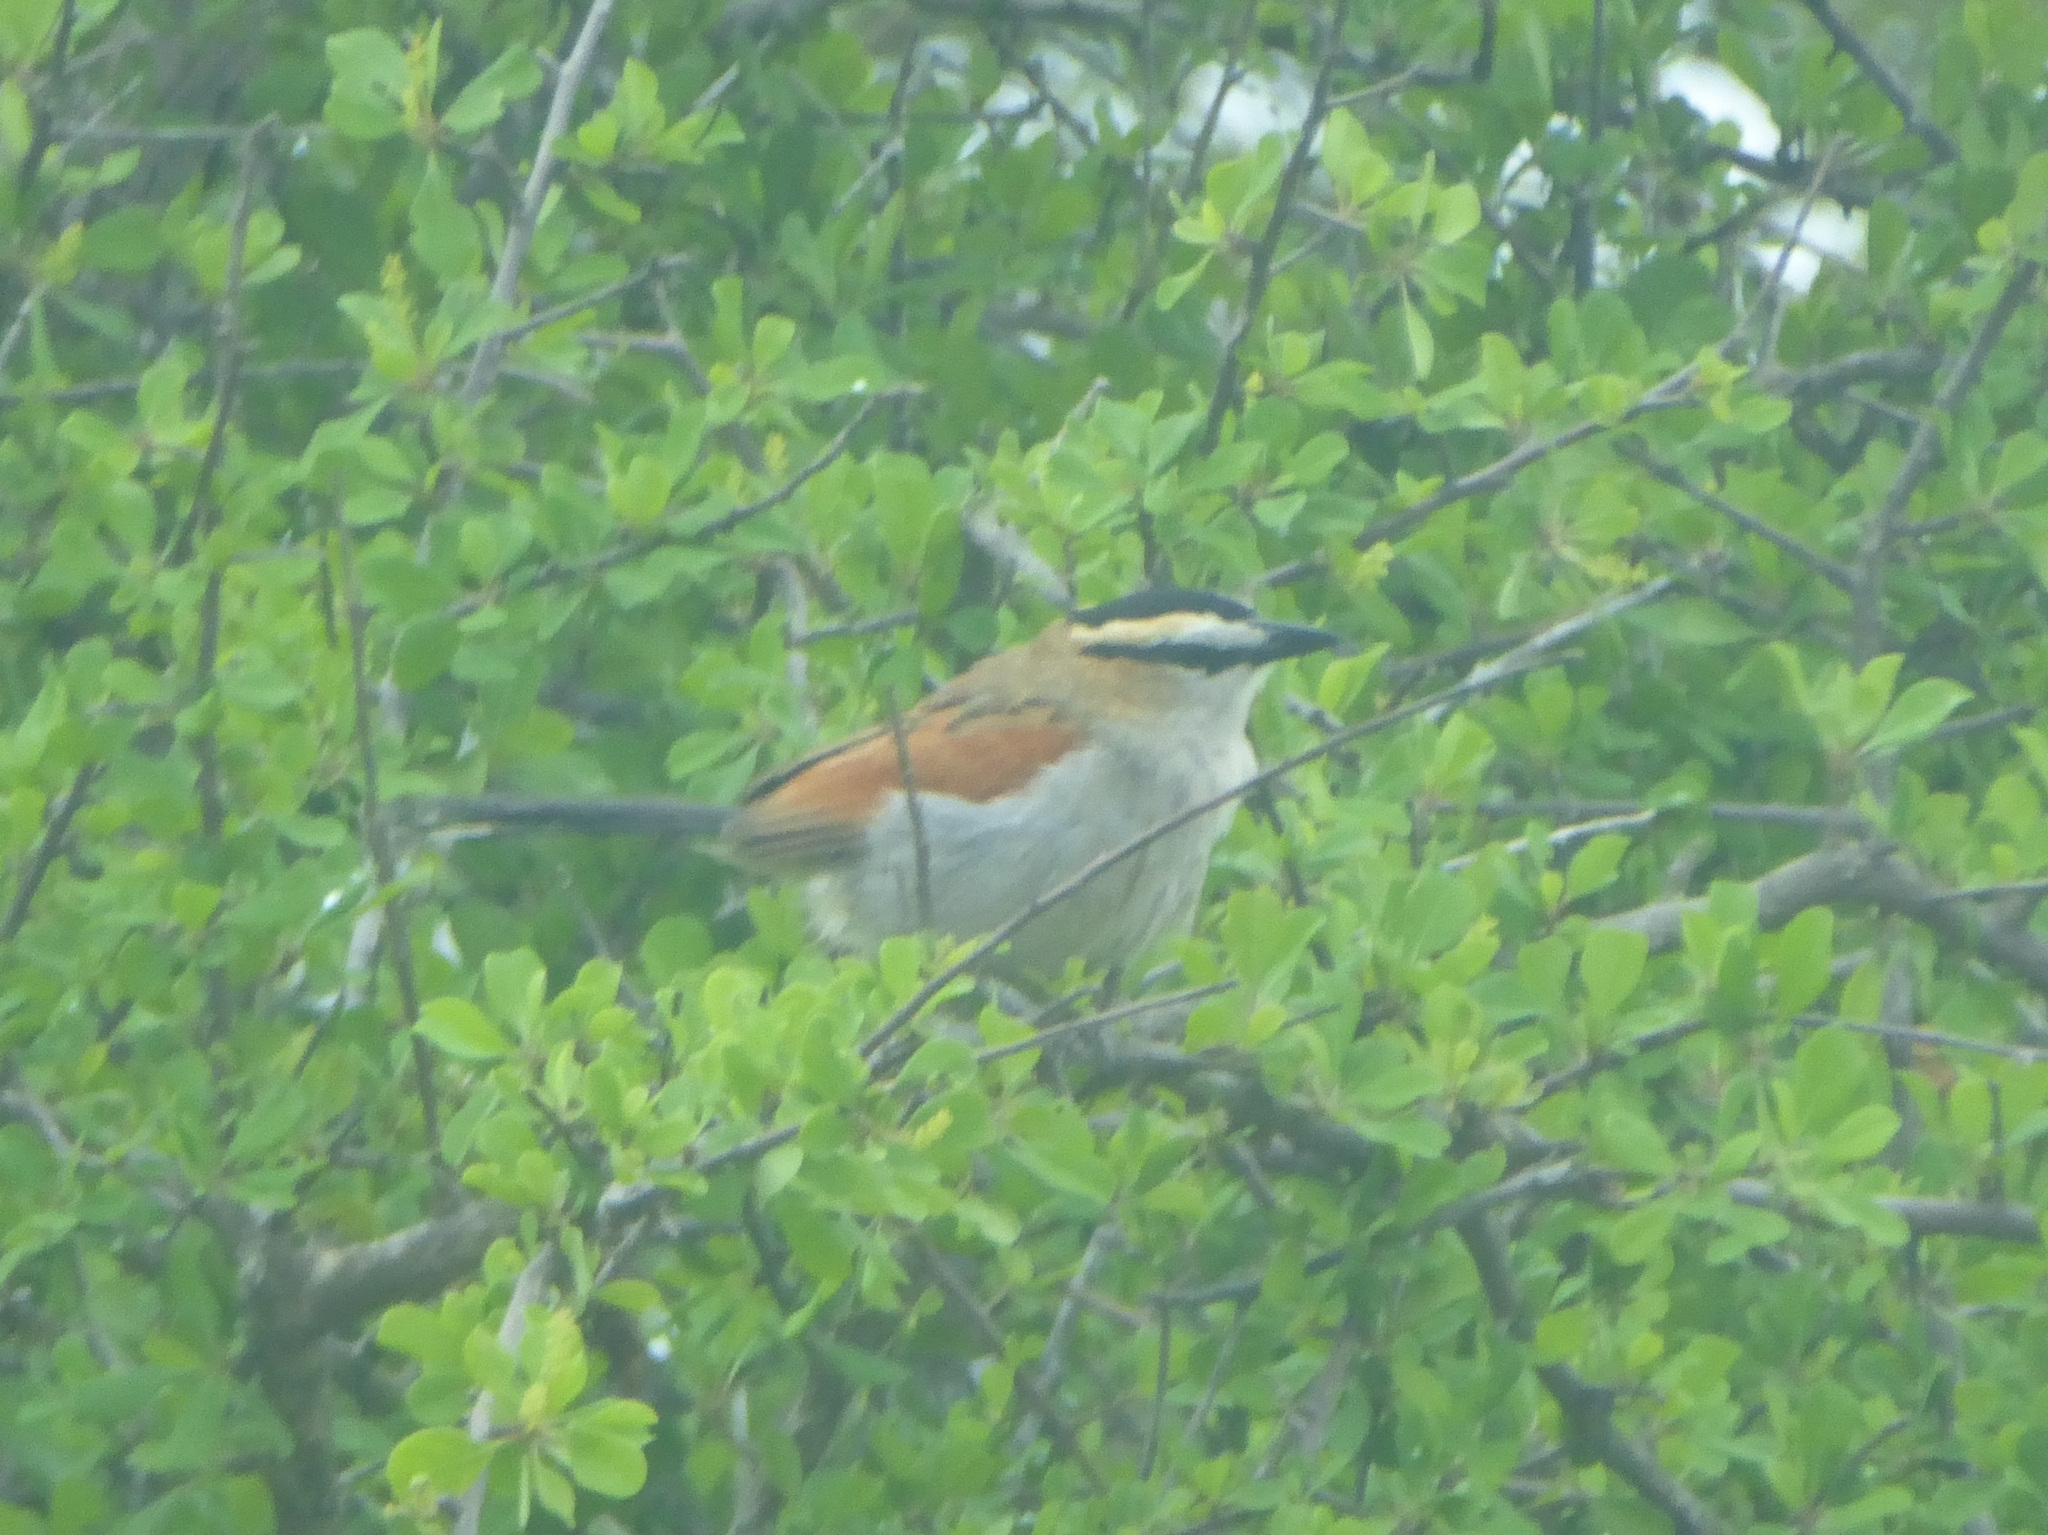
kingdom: Animalia
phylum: Chordata
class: Aves
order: Passeriformes
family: Malaconotidae
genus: Tchagra
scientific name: Tchagra senegalus
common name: Black-crowned tchagra
